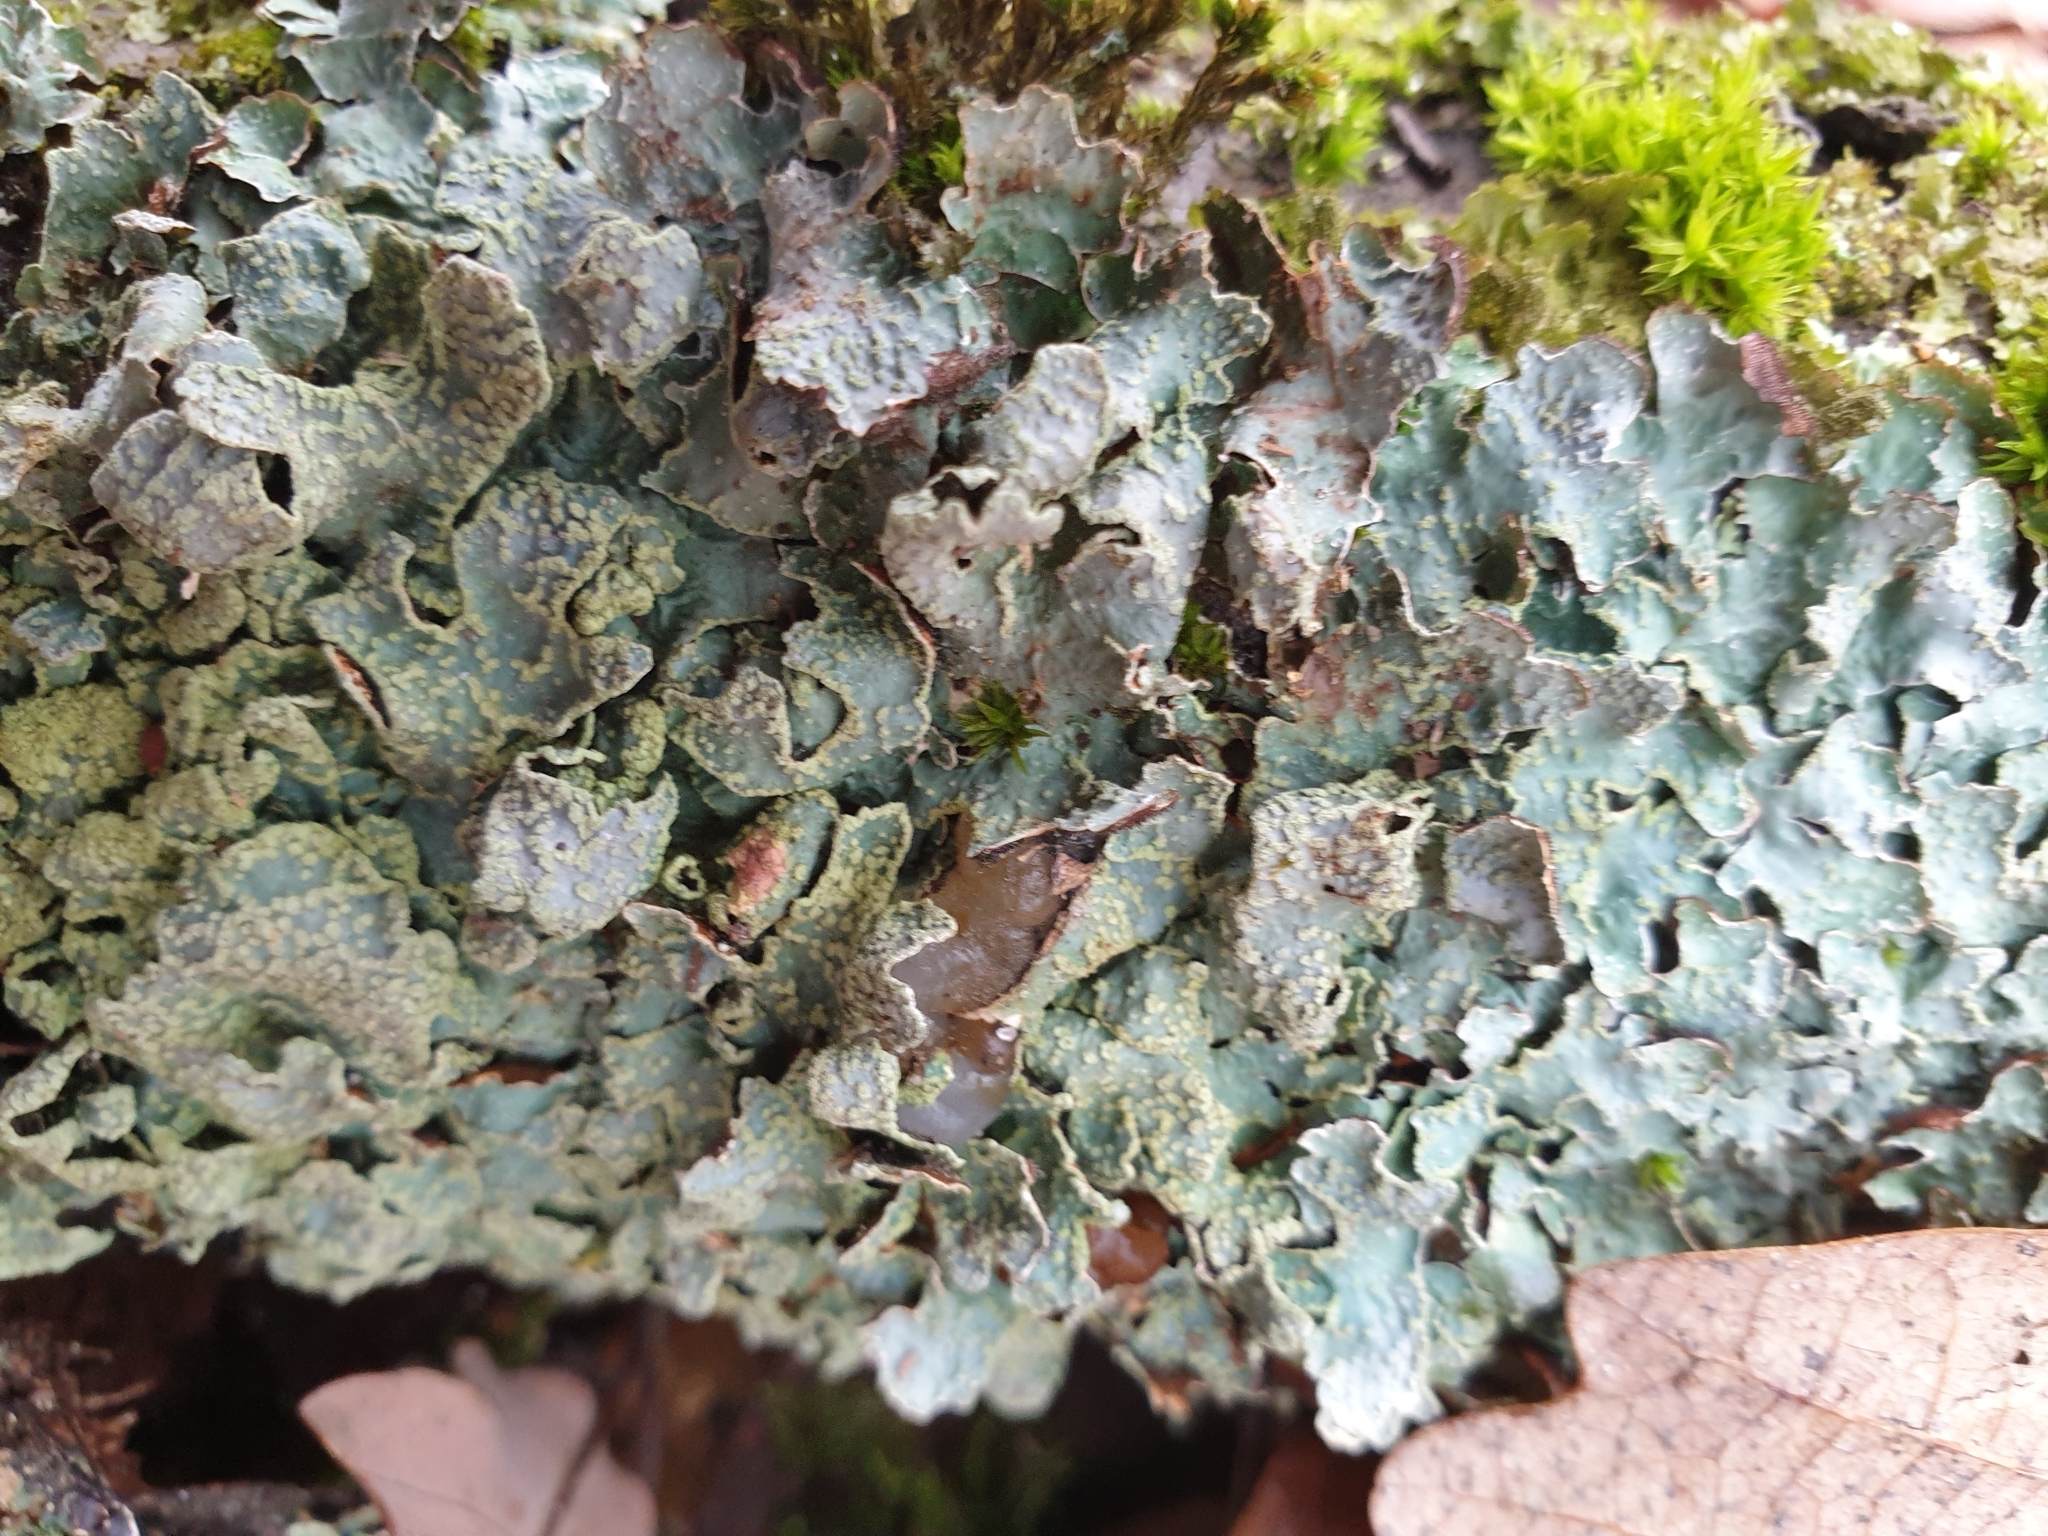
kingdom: Fungi
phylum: Ascomycota
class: Lecanoromycetes
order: Lecanorales
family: Parmeliaceae
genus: Parmelia
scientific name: Parmelia sulcata
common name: Netted shield lichen
